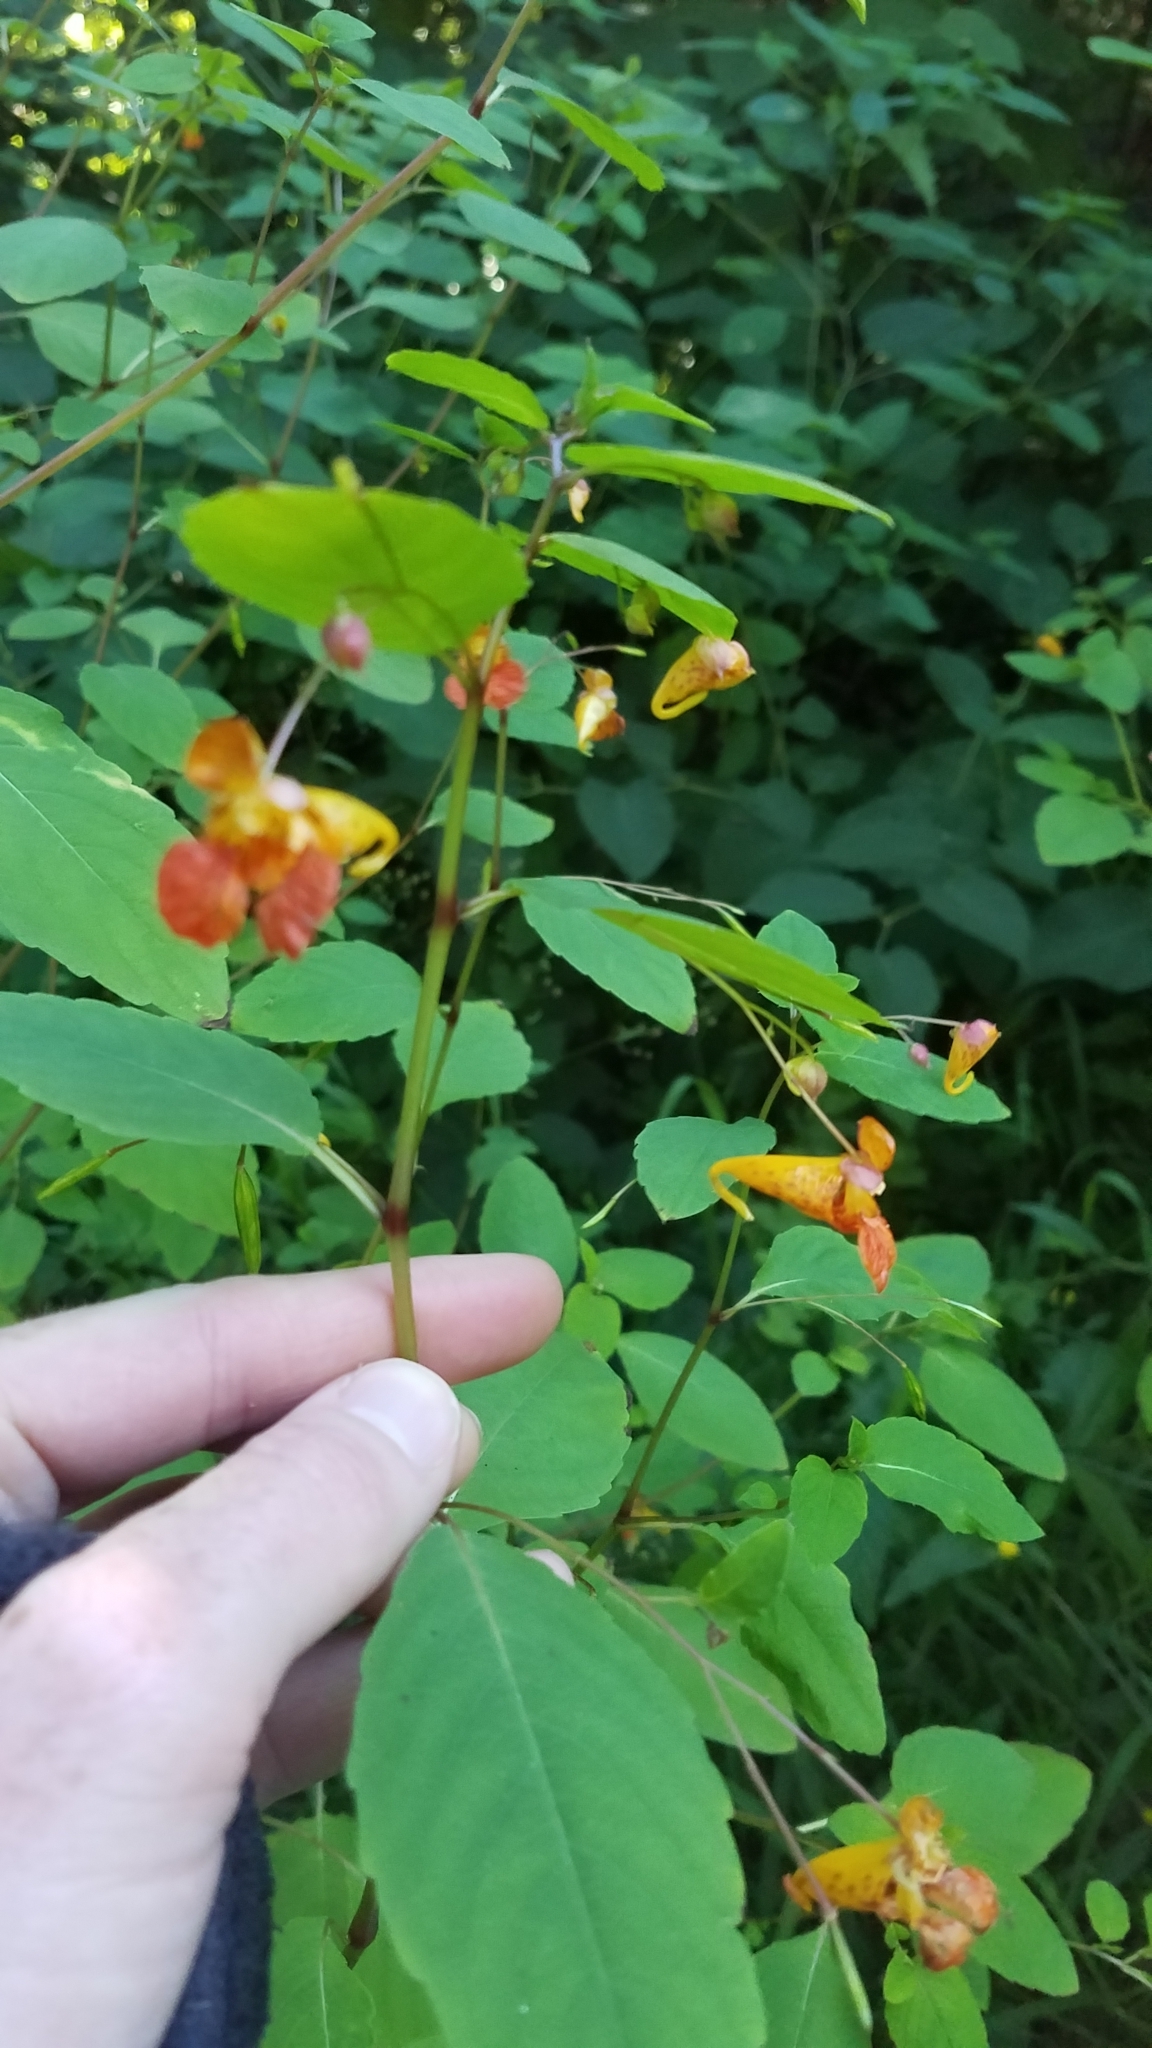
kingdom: Plantae
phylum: Tracheophyta
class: Magnoliopsida
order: Ericales
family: Balsaminaceae
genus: Impatiens
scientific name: Impatiens capensis
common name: Orange balsam
